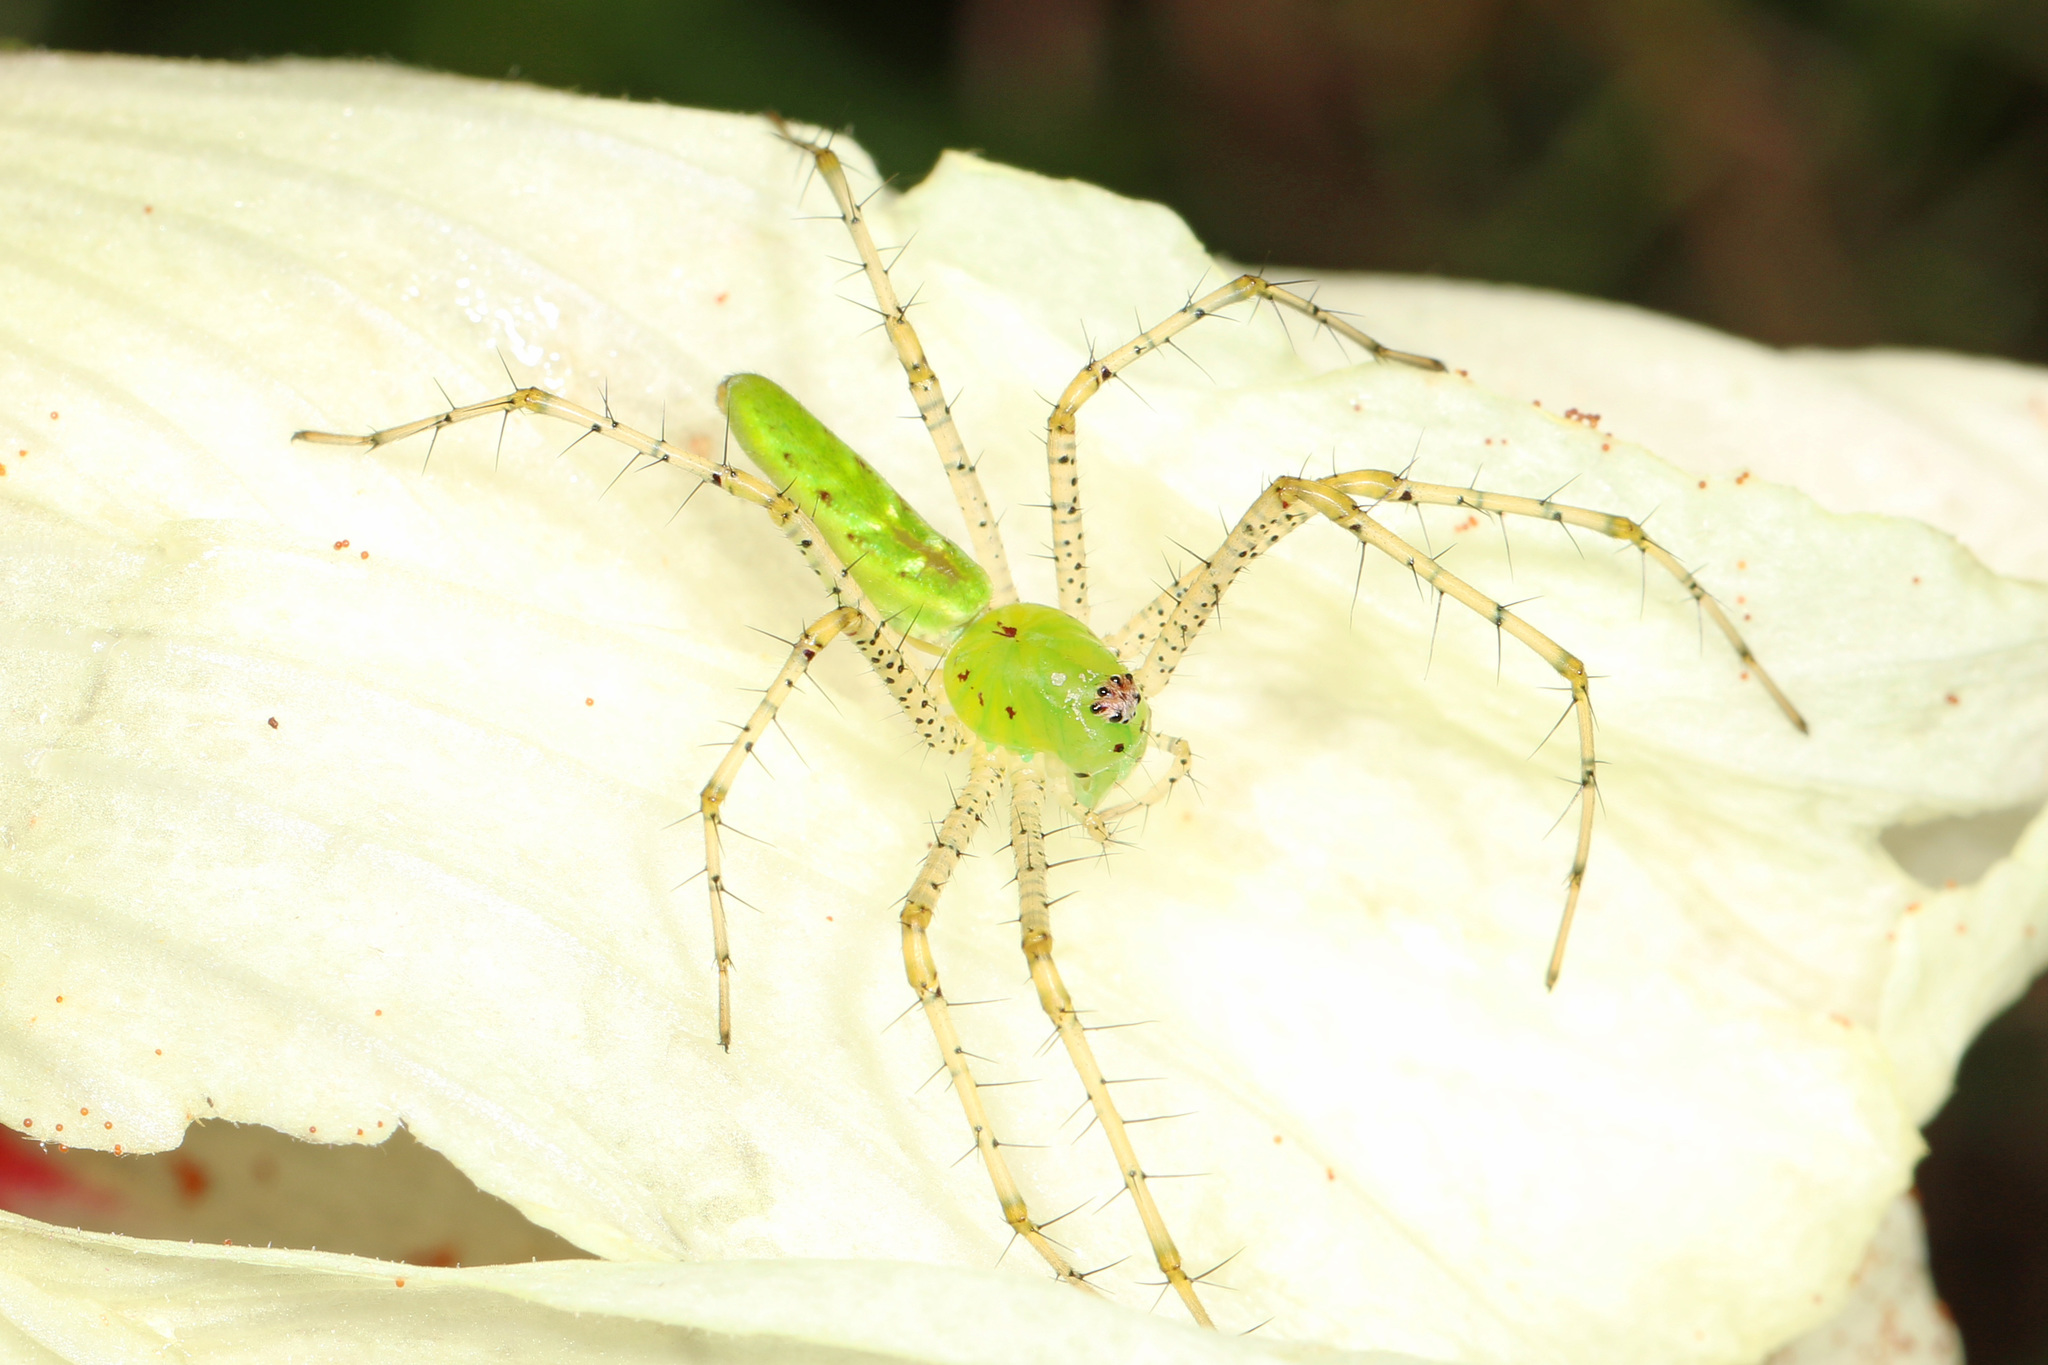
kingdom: Animalia
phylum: Arthropoda
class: Arachnida
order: Araneae
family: Oxyopidae
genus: Peucetia
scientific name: Peucetia viridans
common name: Lynx spiders
